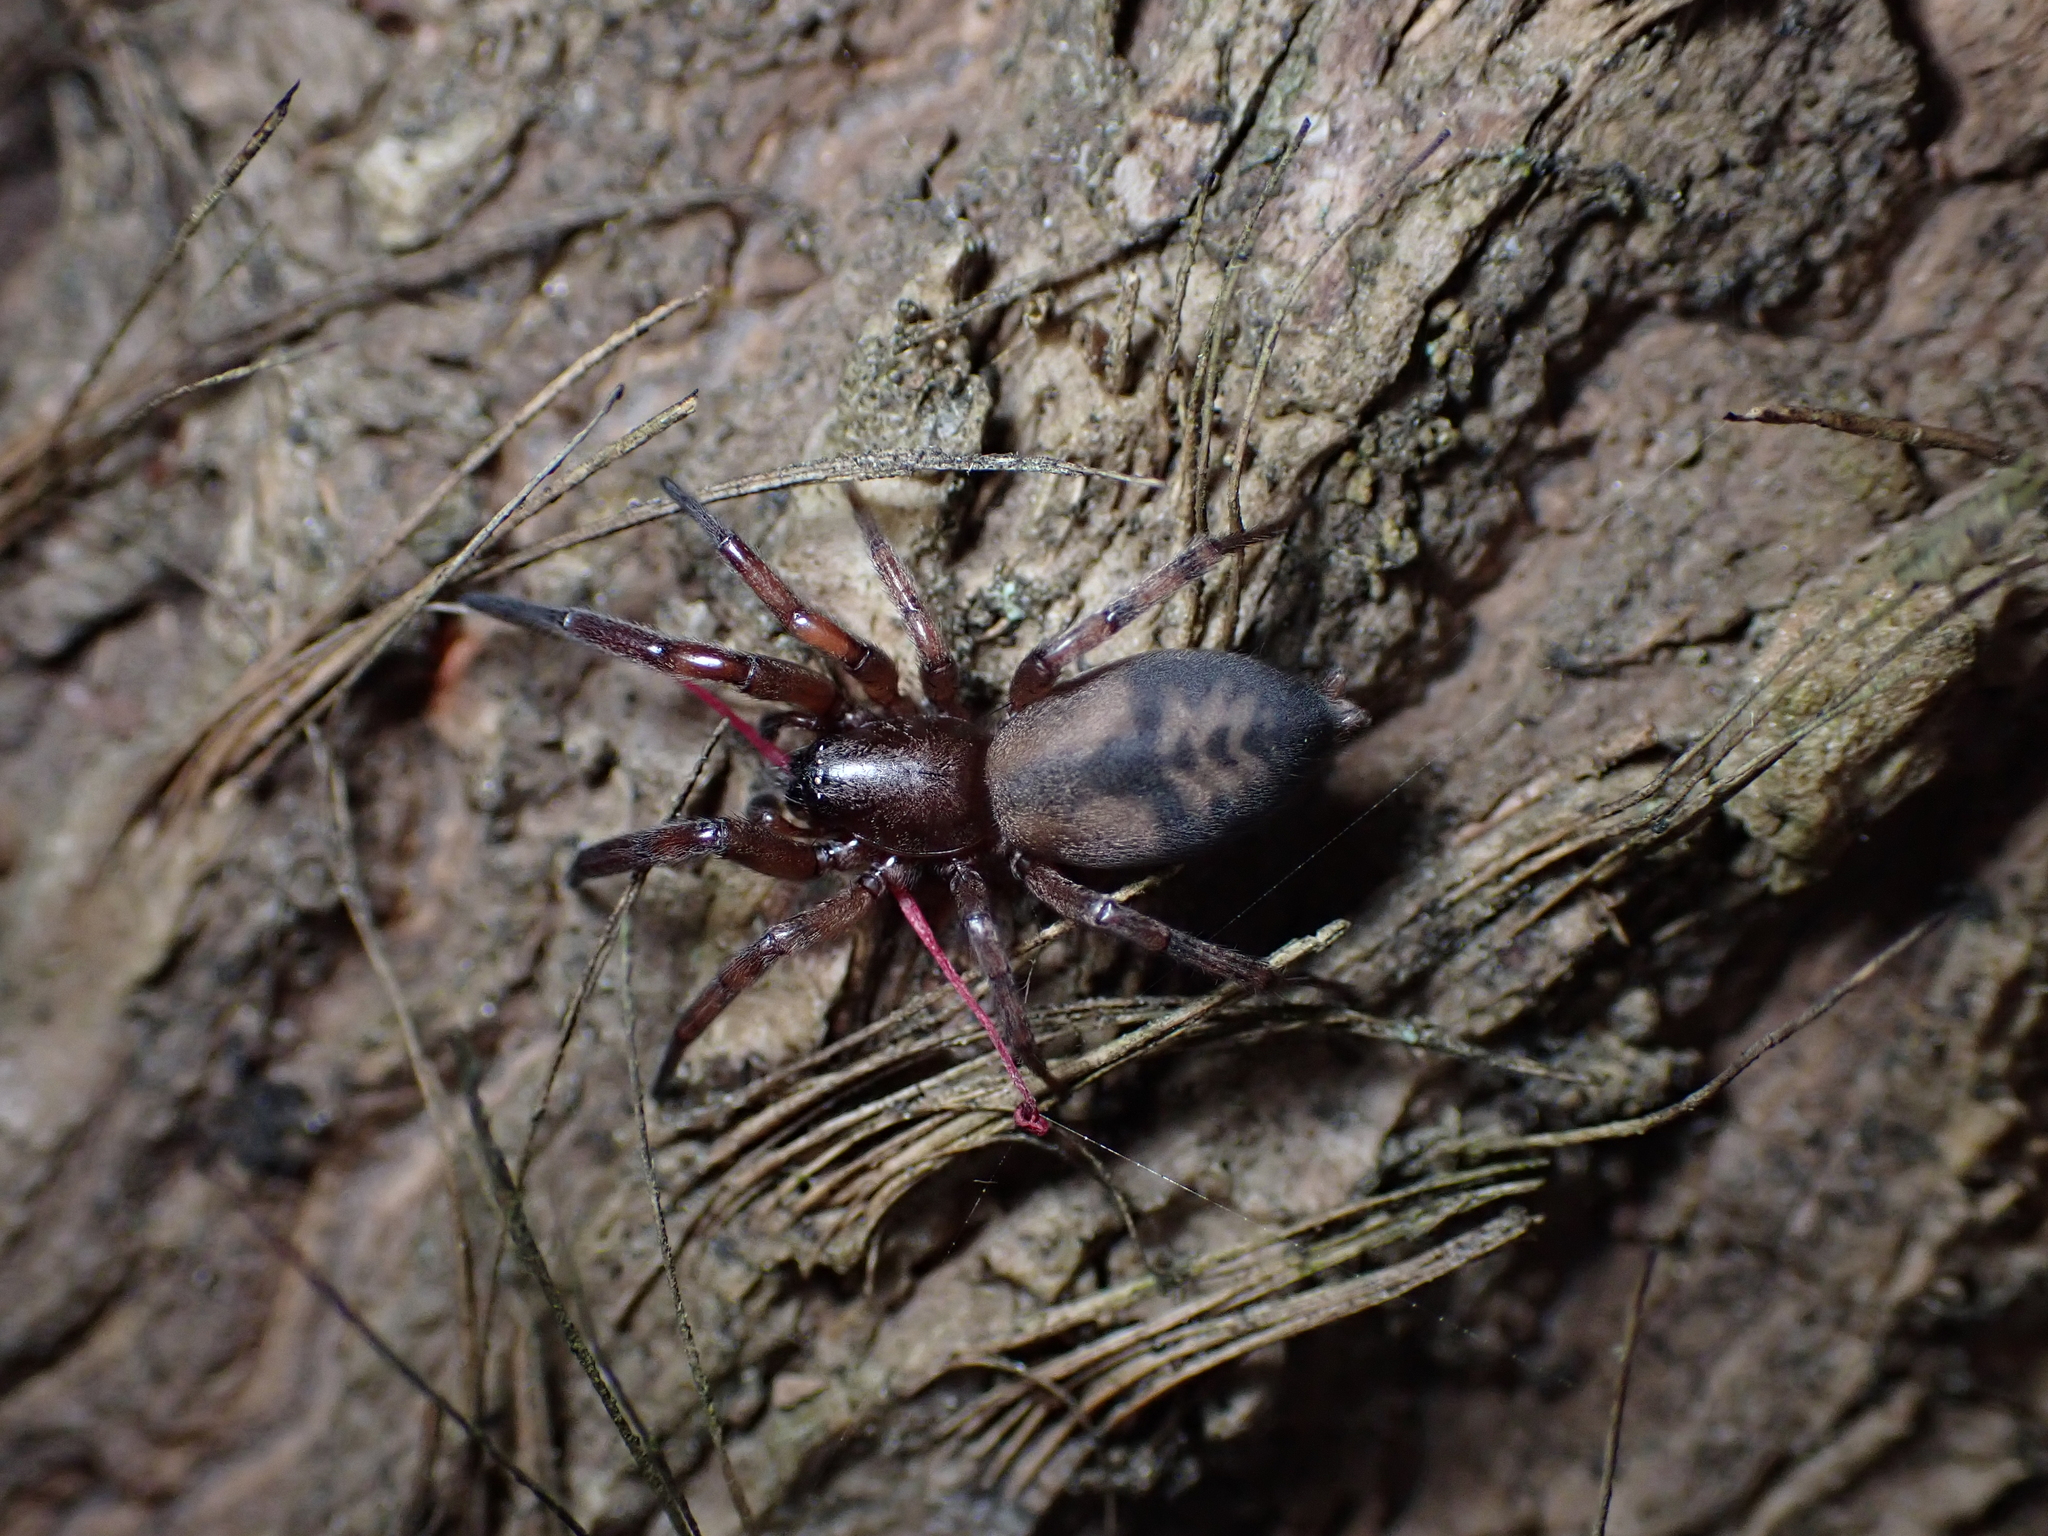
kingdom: Animalia
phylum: Arthropoda
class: Arachnida
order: Araneae
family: Gnaphosidae
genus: Intruda
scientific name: Intruda signata
